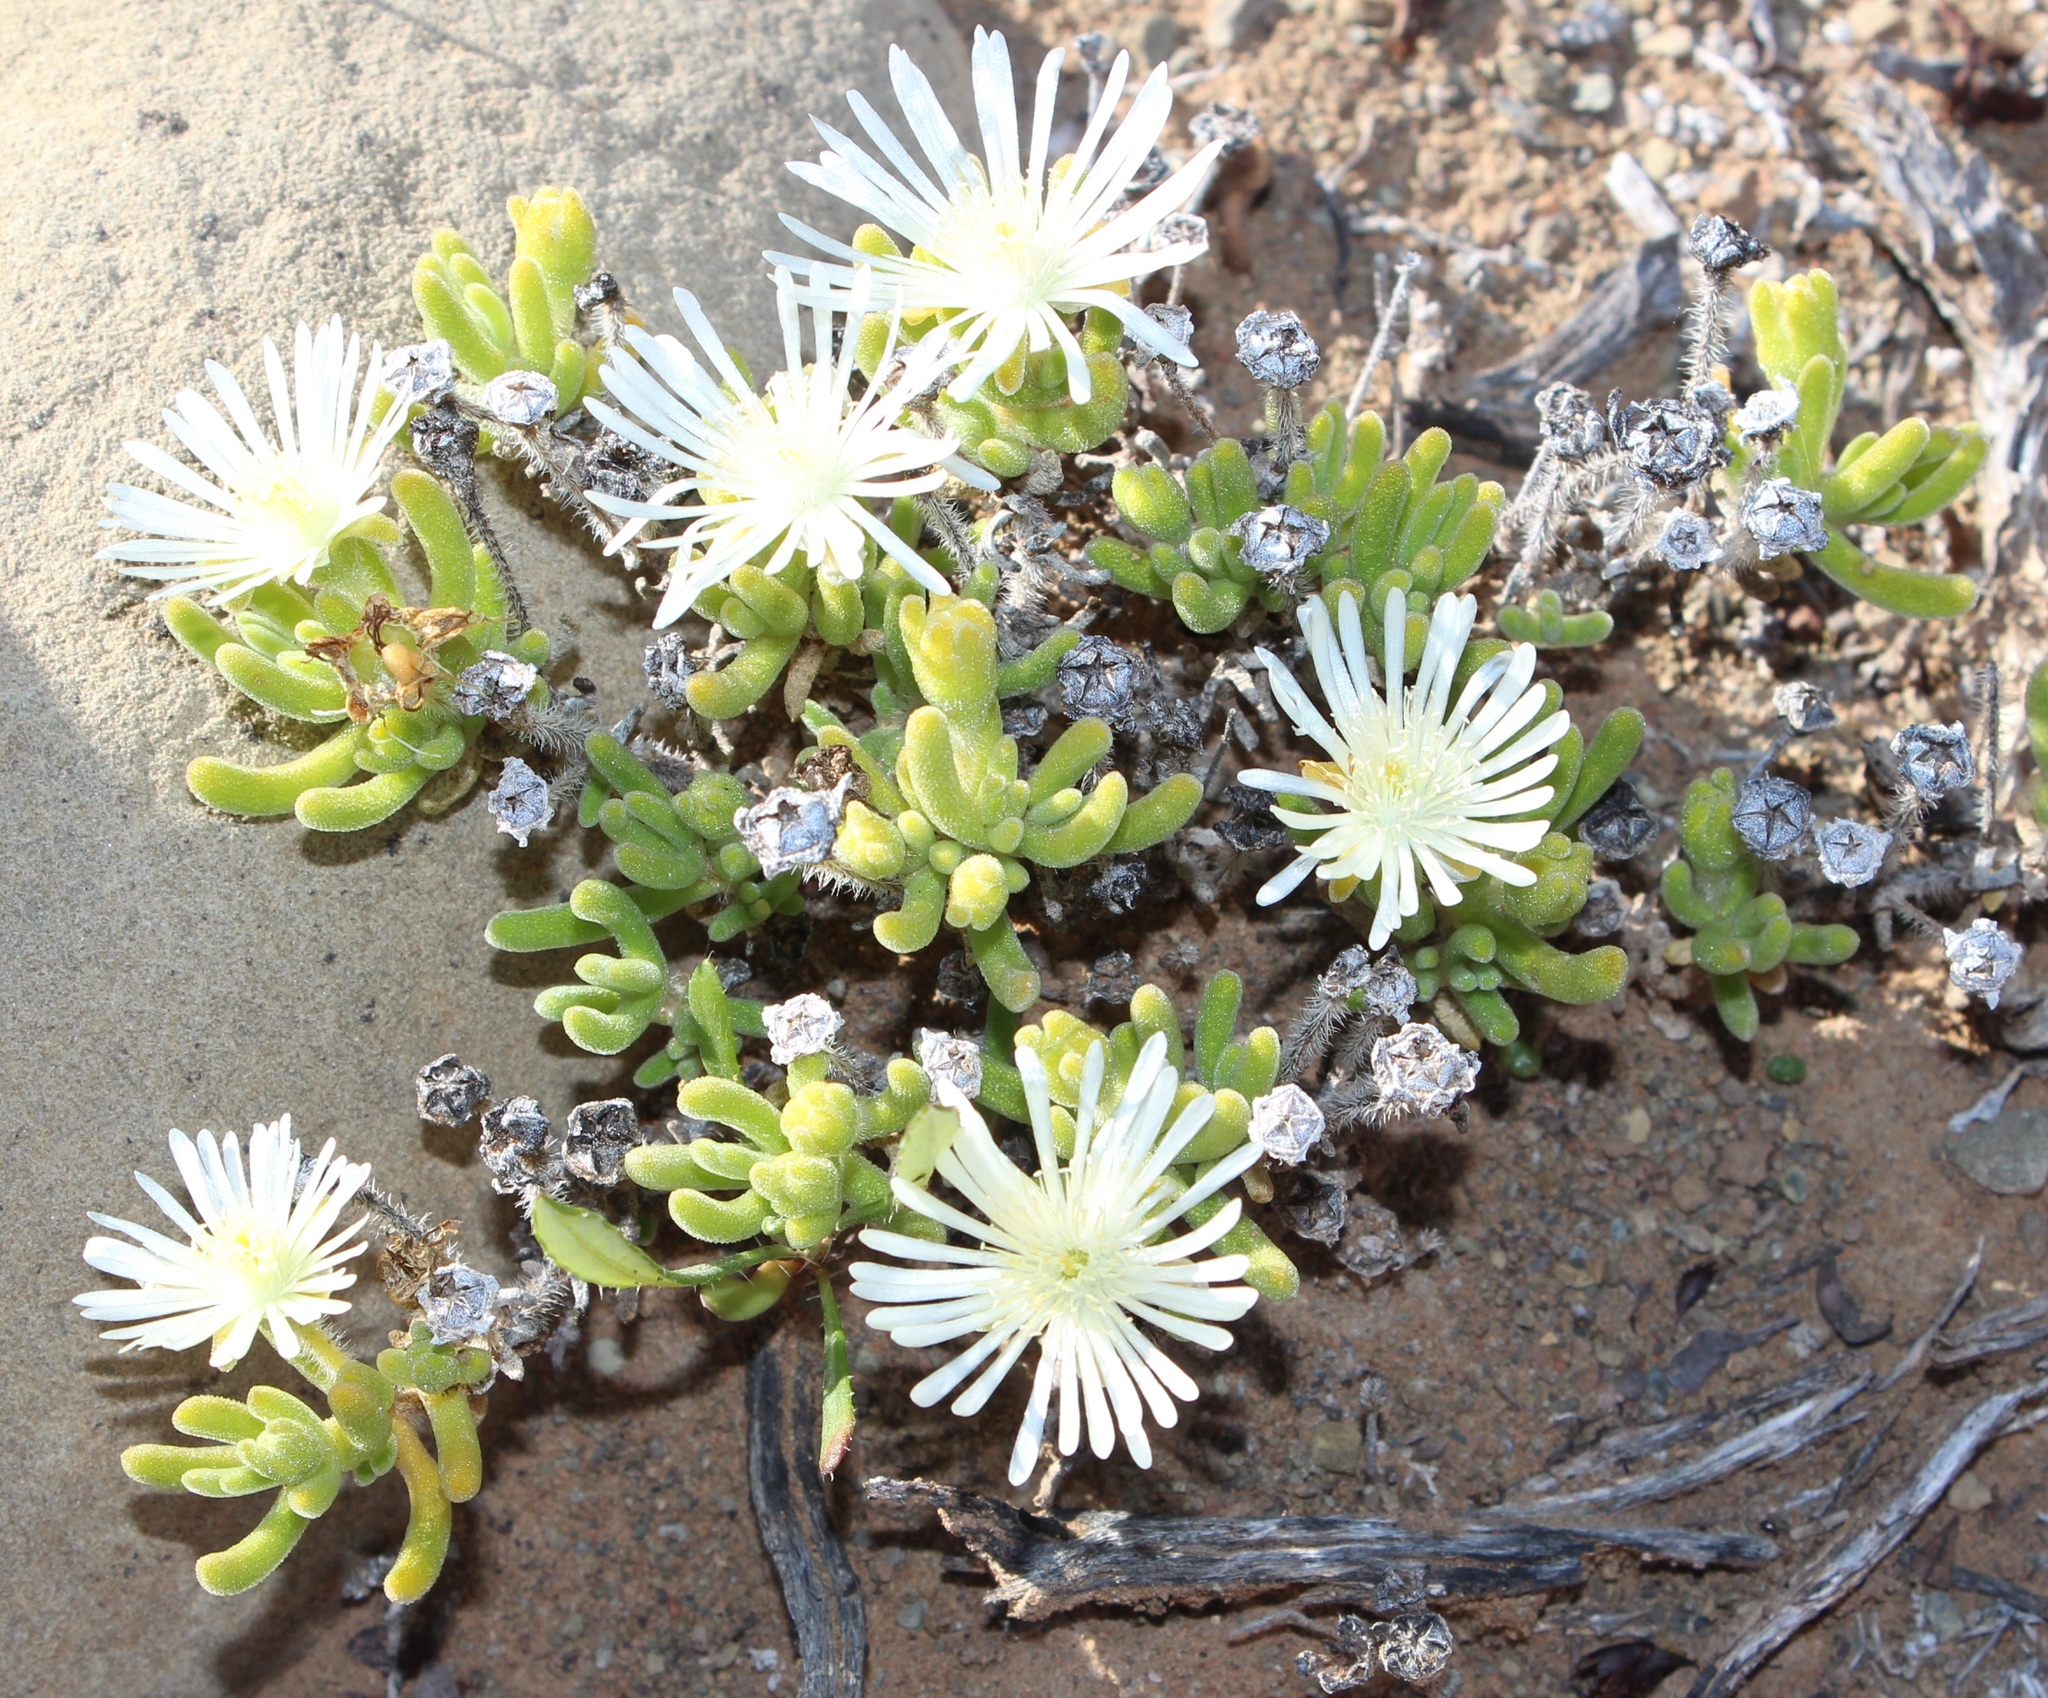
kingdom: Plantae
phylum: Tracheophyta
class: Magnoliopsida
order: Caryophyllales
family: Aizoaceae
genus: Drosanthemum
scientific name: Drosanthemum eburneum
